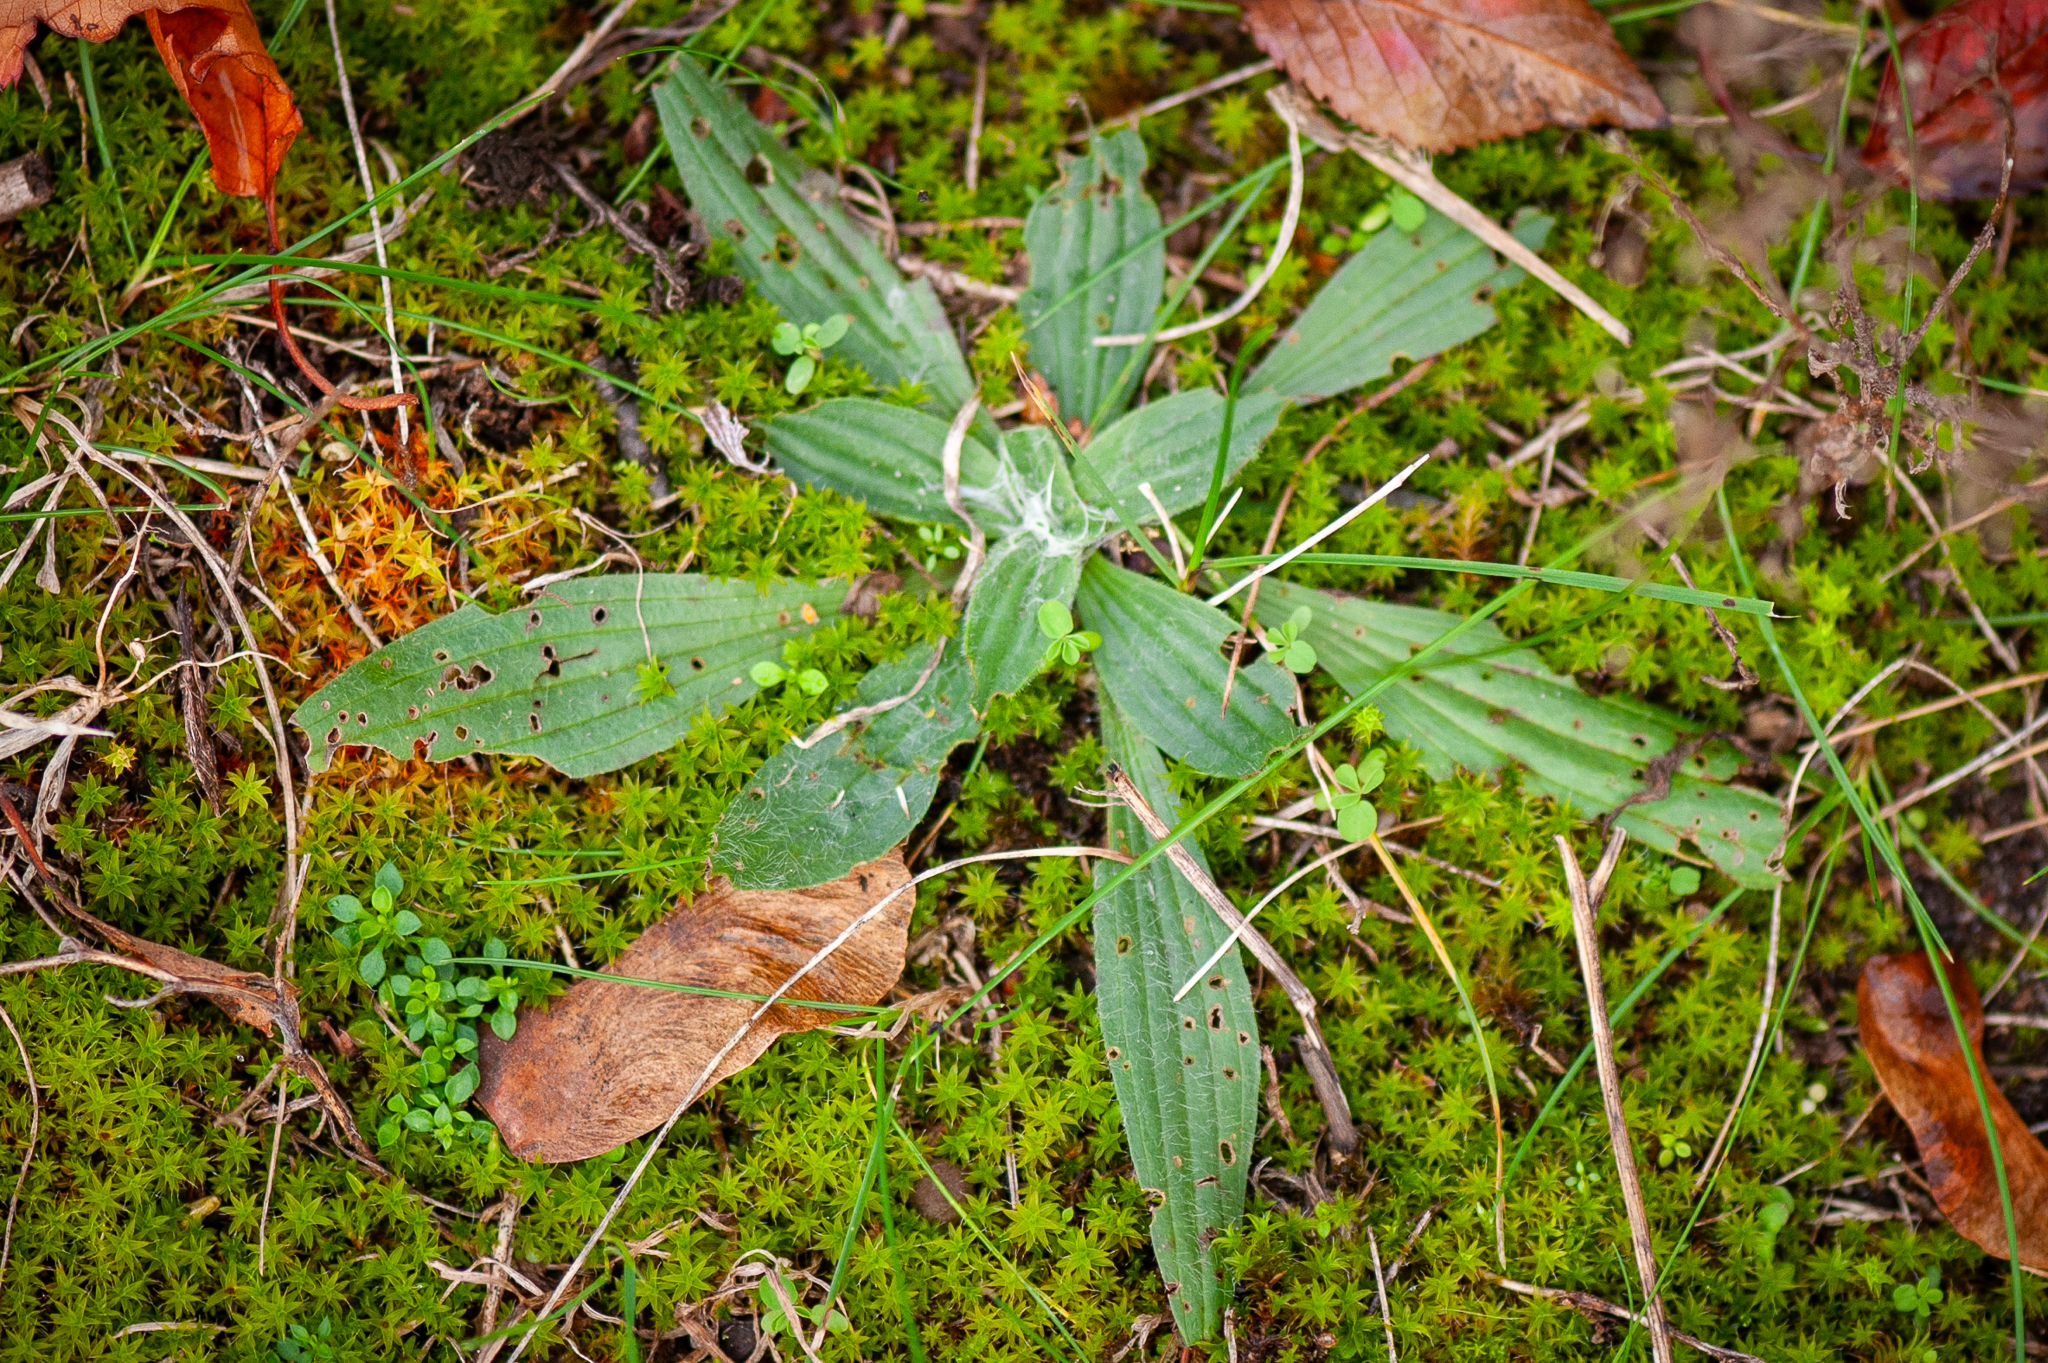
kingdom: Plantae
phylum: Tracheophyta
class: Magnoliopsida
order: Lamiales
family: Plantaginaceae
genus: Plantago
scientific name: Plantago lanceolata
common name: Ribwort plantain
